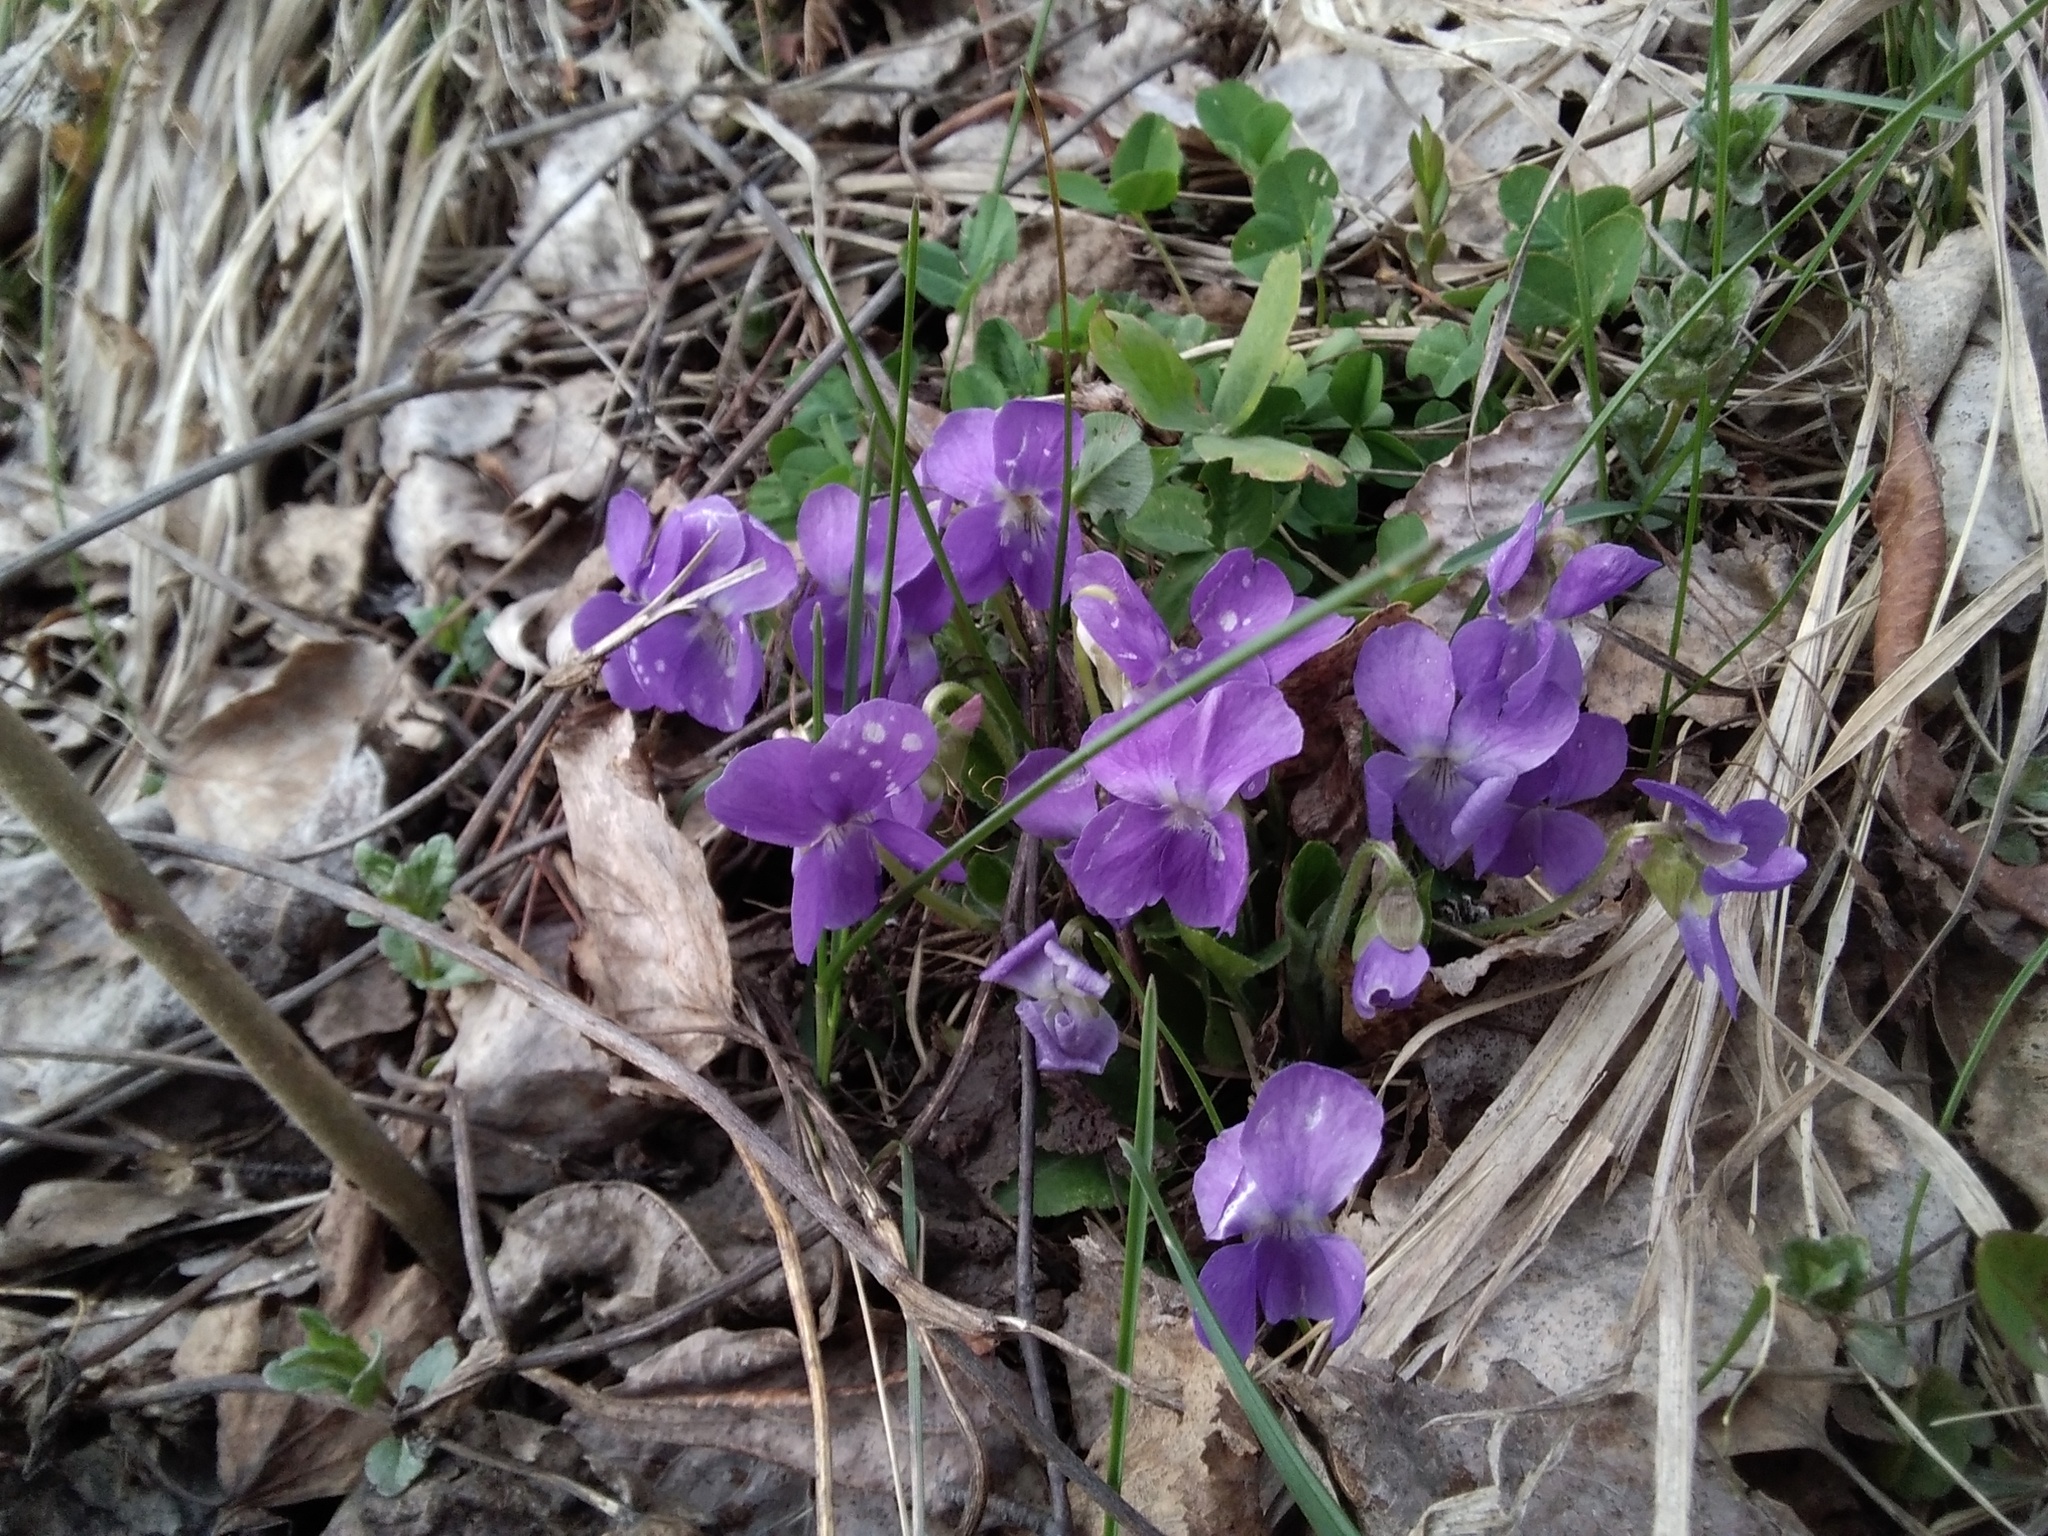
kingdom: Plantae
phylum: Tracheophyta
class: Magnoliopsida
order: Malpighiales
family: Violaceae
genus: Viola
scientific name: Viola hirta
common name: Hairy violet
